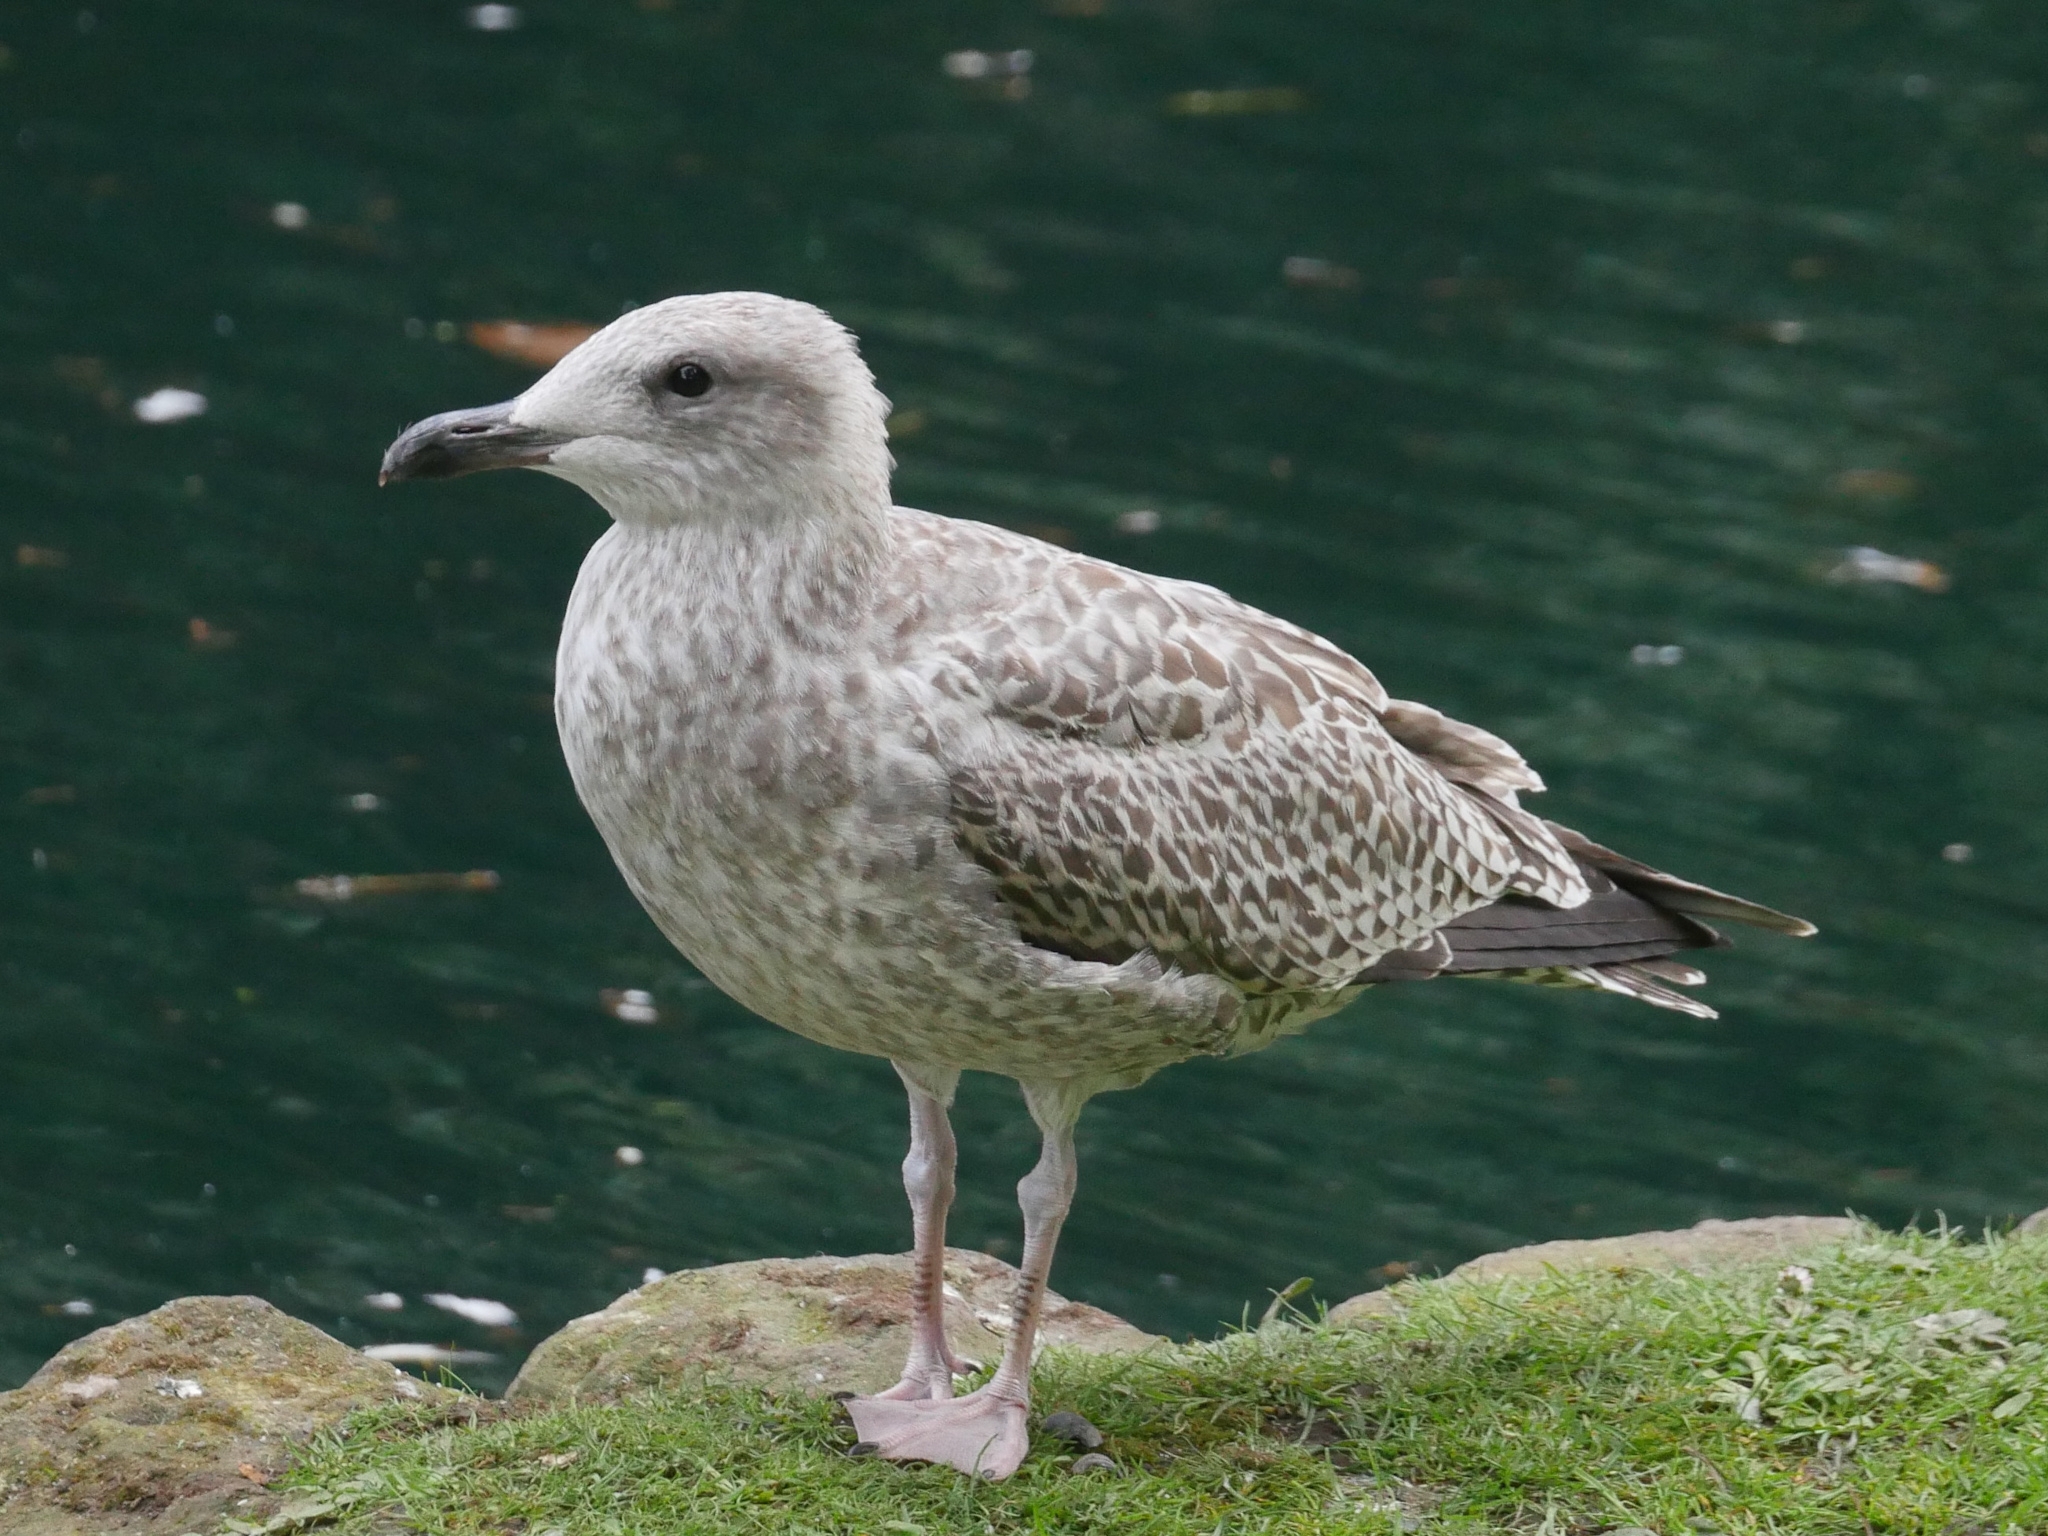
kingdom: Animalia
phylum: Chordata
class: Aves
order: Charadriiformes
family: Laridae
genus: Larus
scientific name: Larus argentatus
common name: Herring gull
